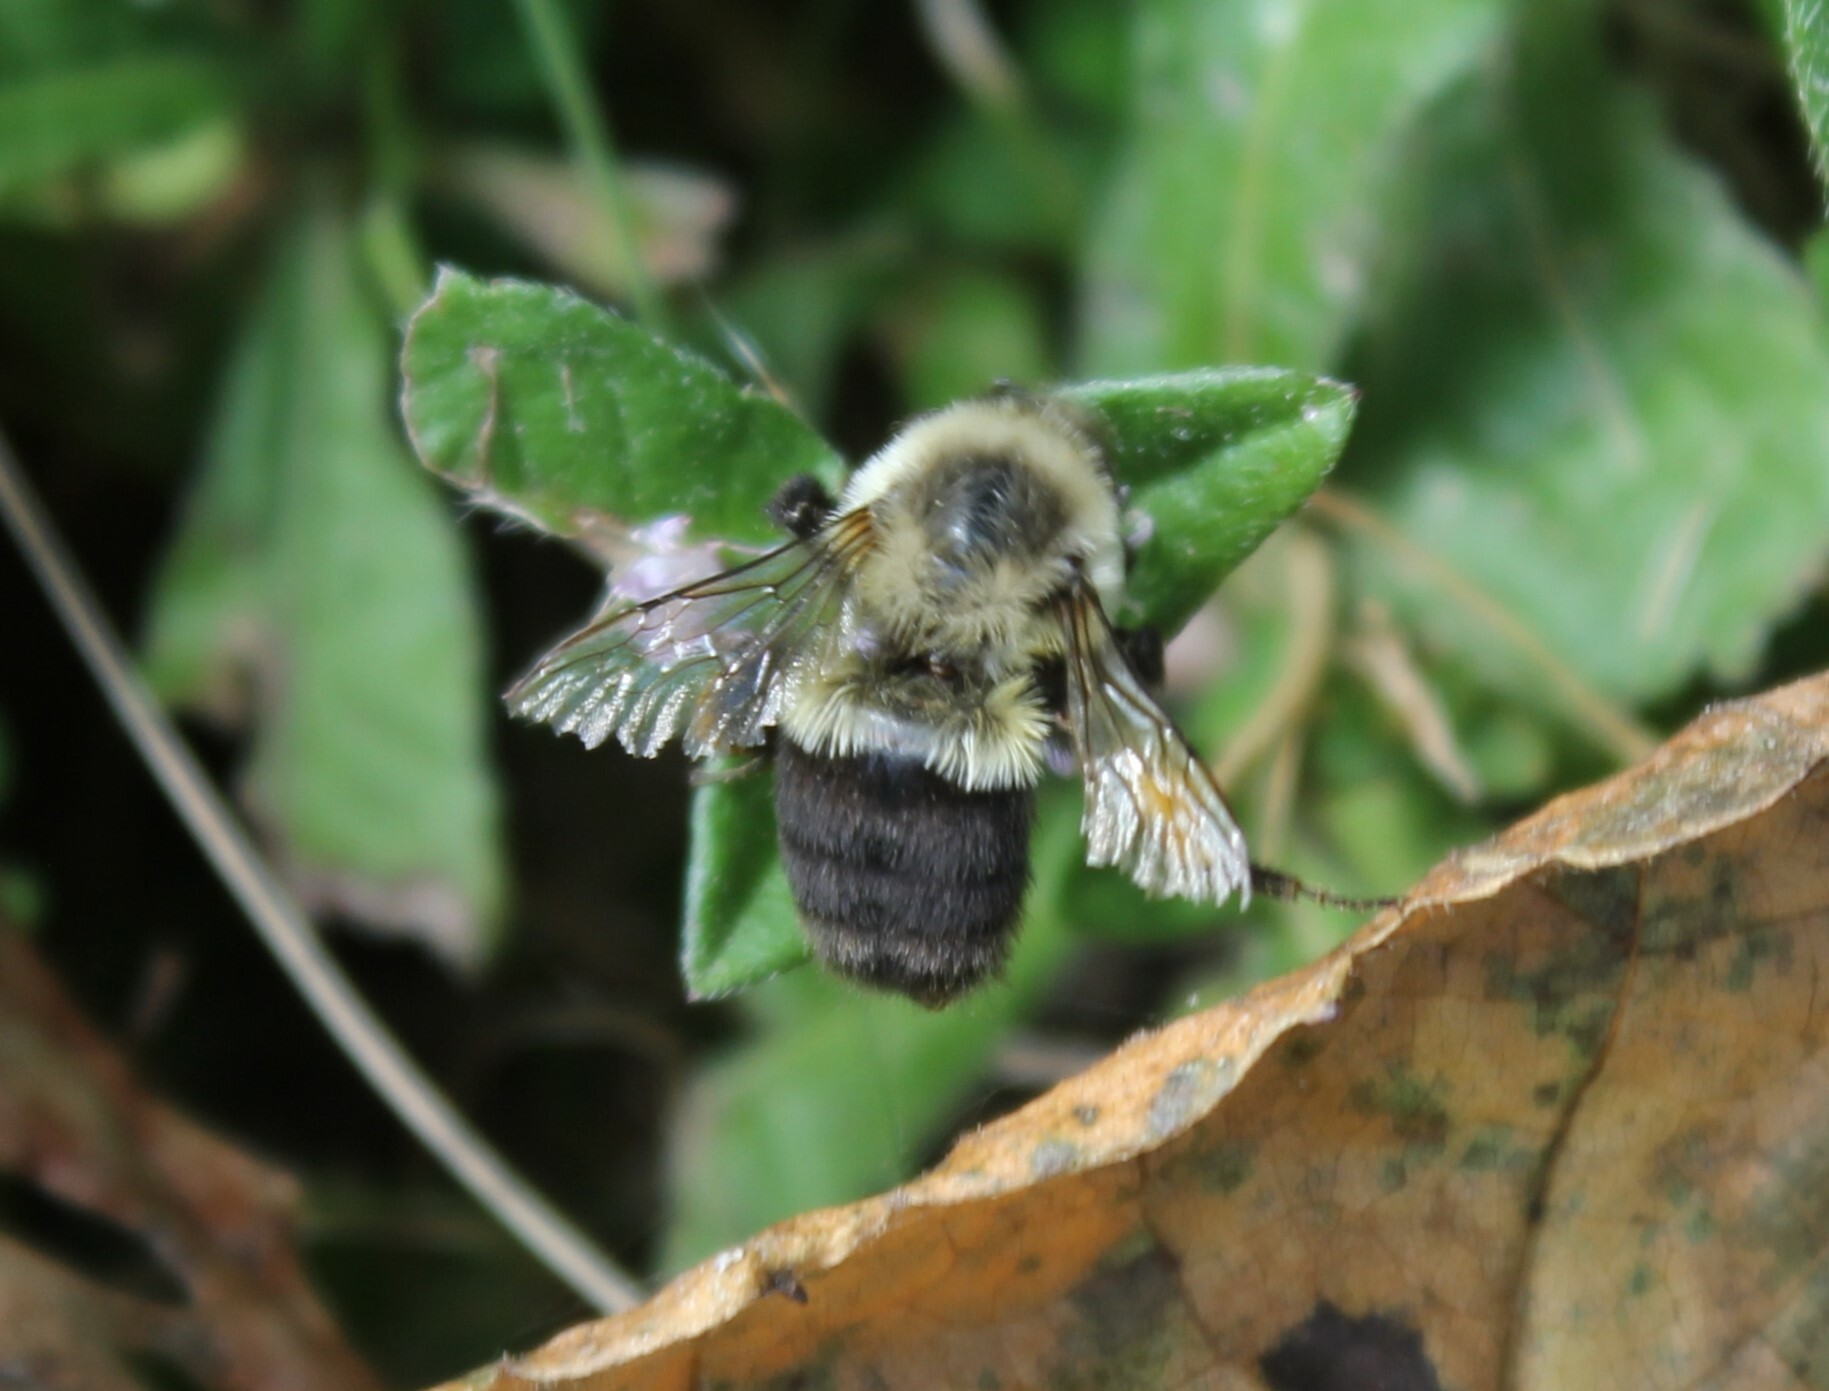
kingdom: Animalia
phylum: Arthropoda
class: Insecta
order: Hymenoptera
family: Apidae
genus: Bombus
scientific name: Bombus impatiens
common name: Common eastern bumble bee
